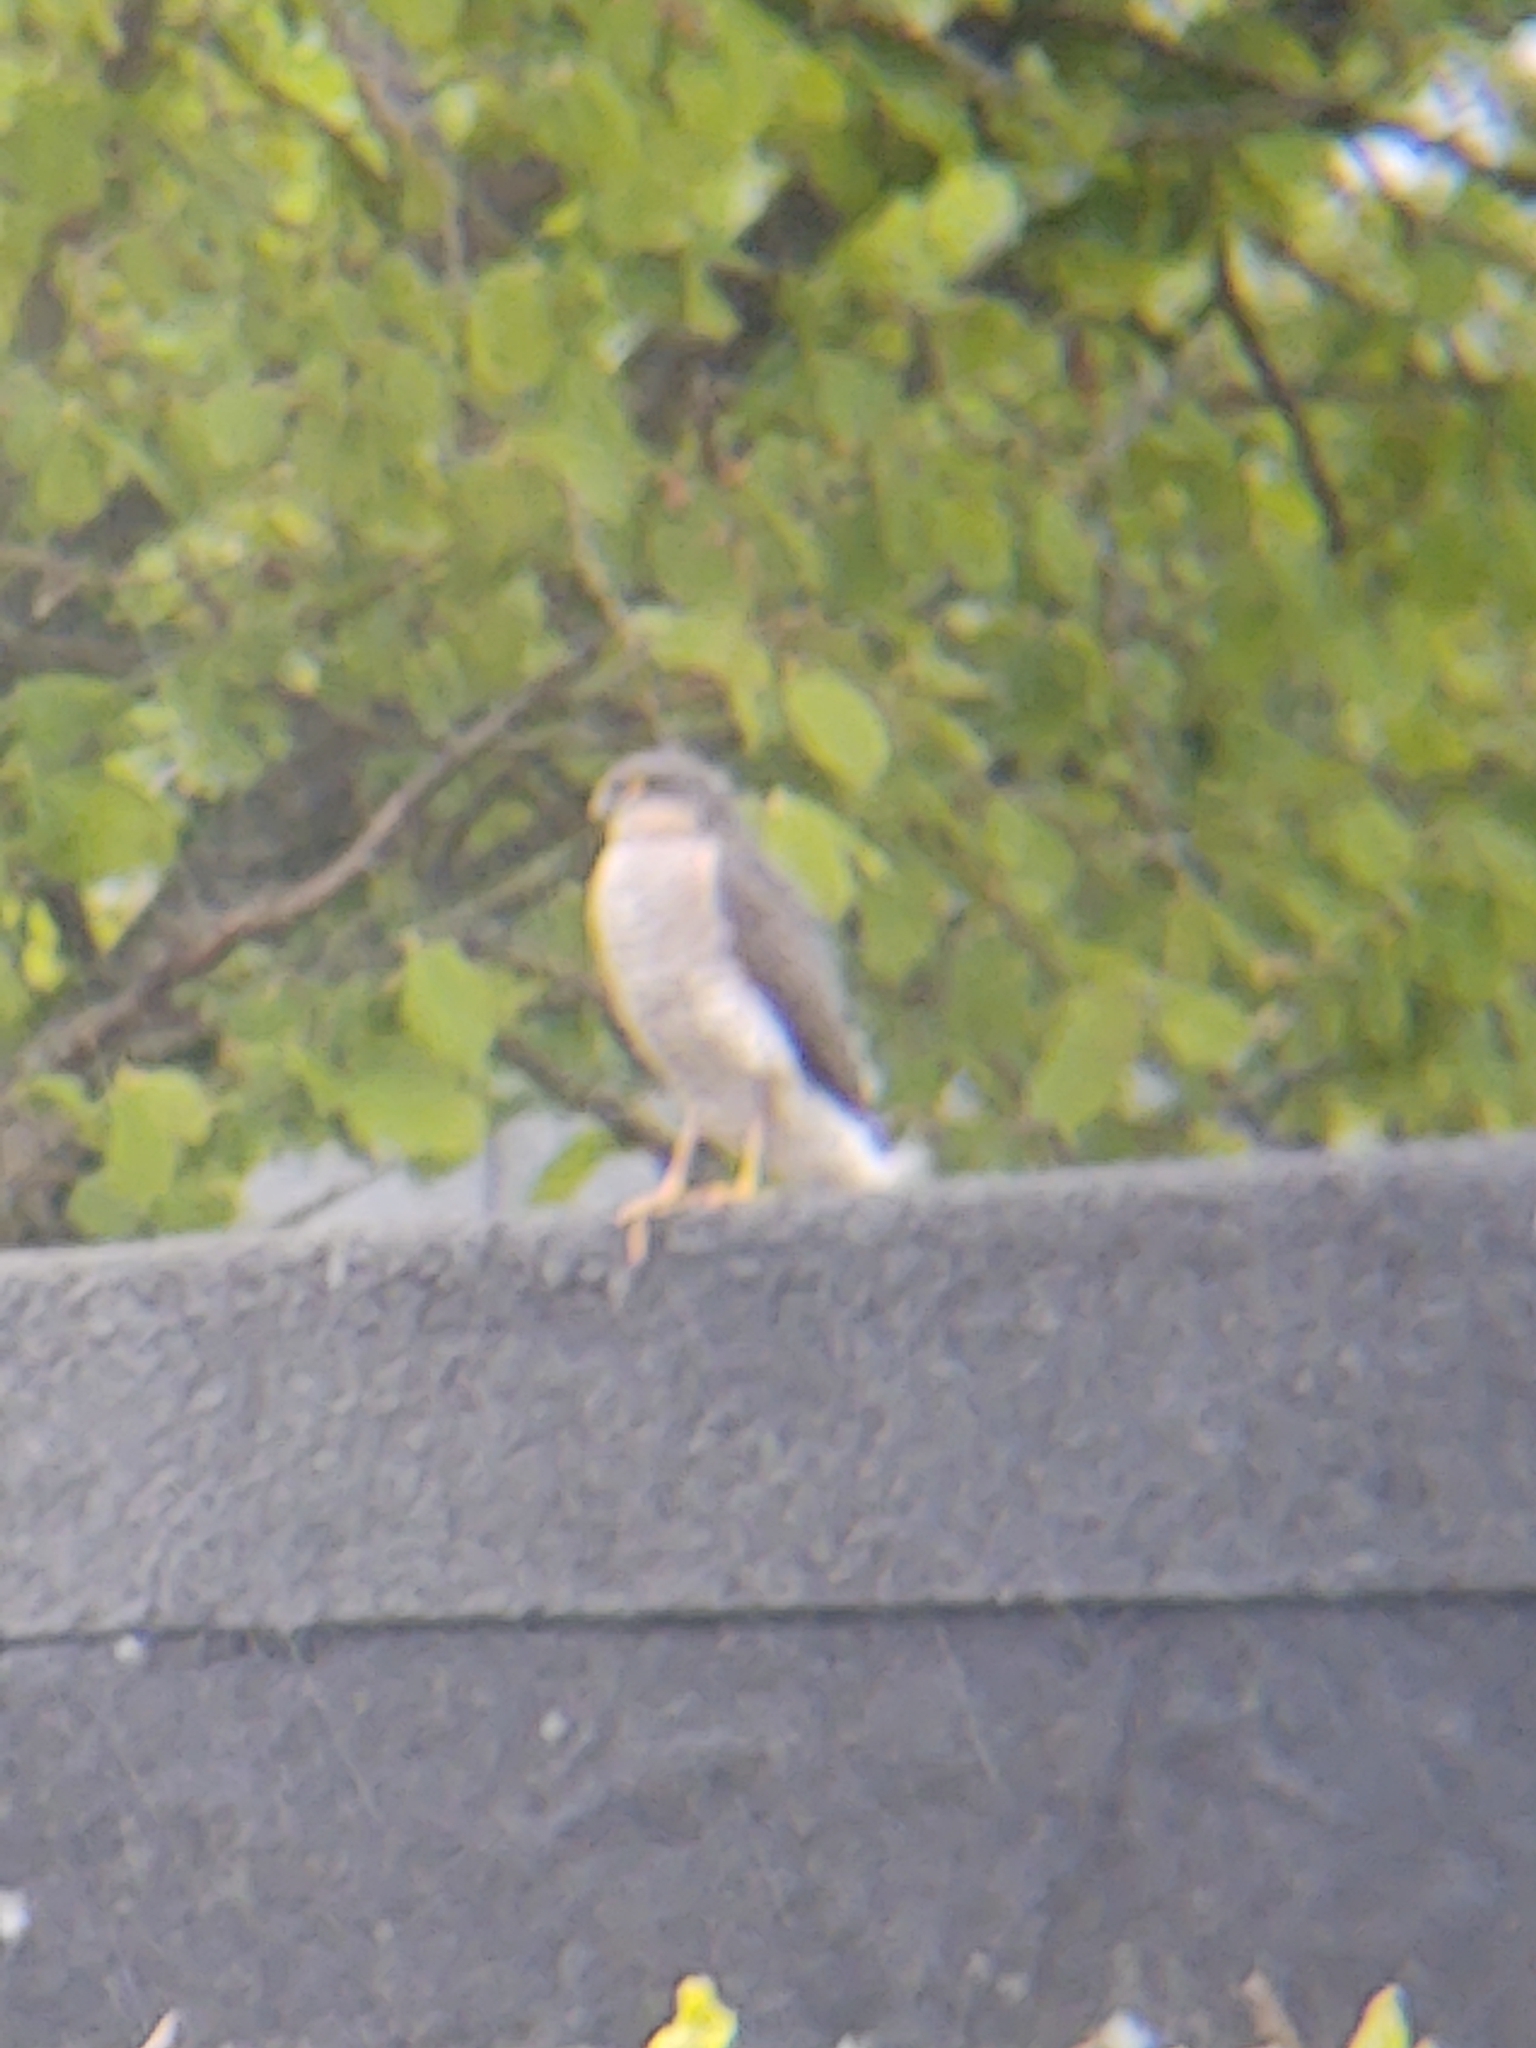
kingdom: Animalia
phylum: Chordata
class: Aves
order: Accipitriformes
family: Accipitridae
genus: Accipiter
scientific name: Accipiter nisus
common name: Eurasian sparrowhawk
